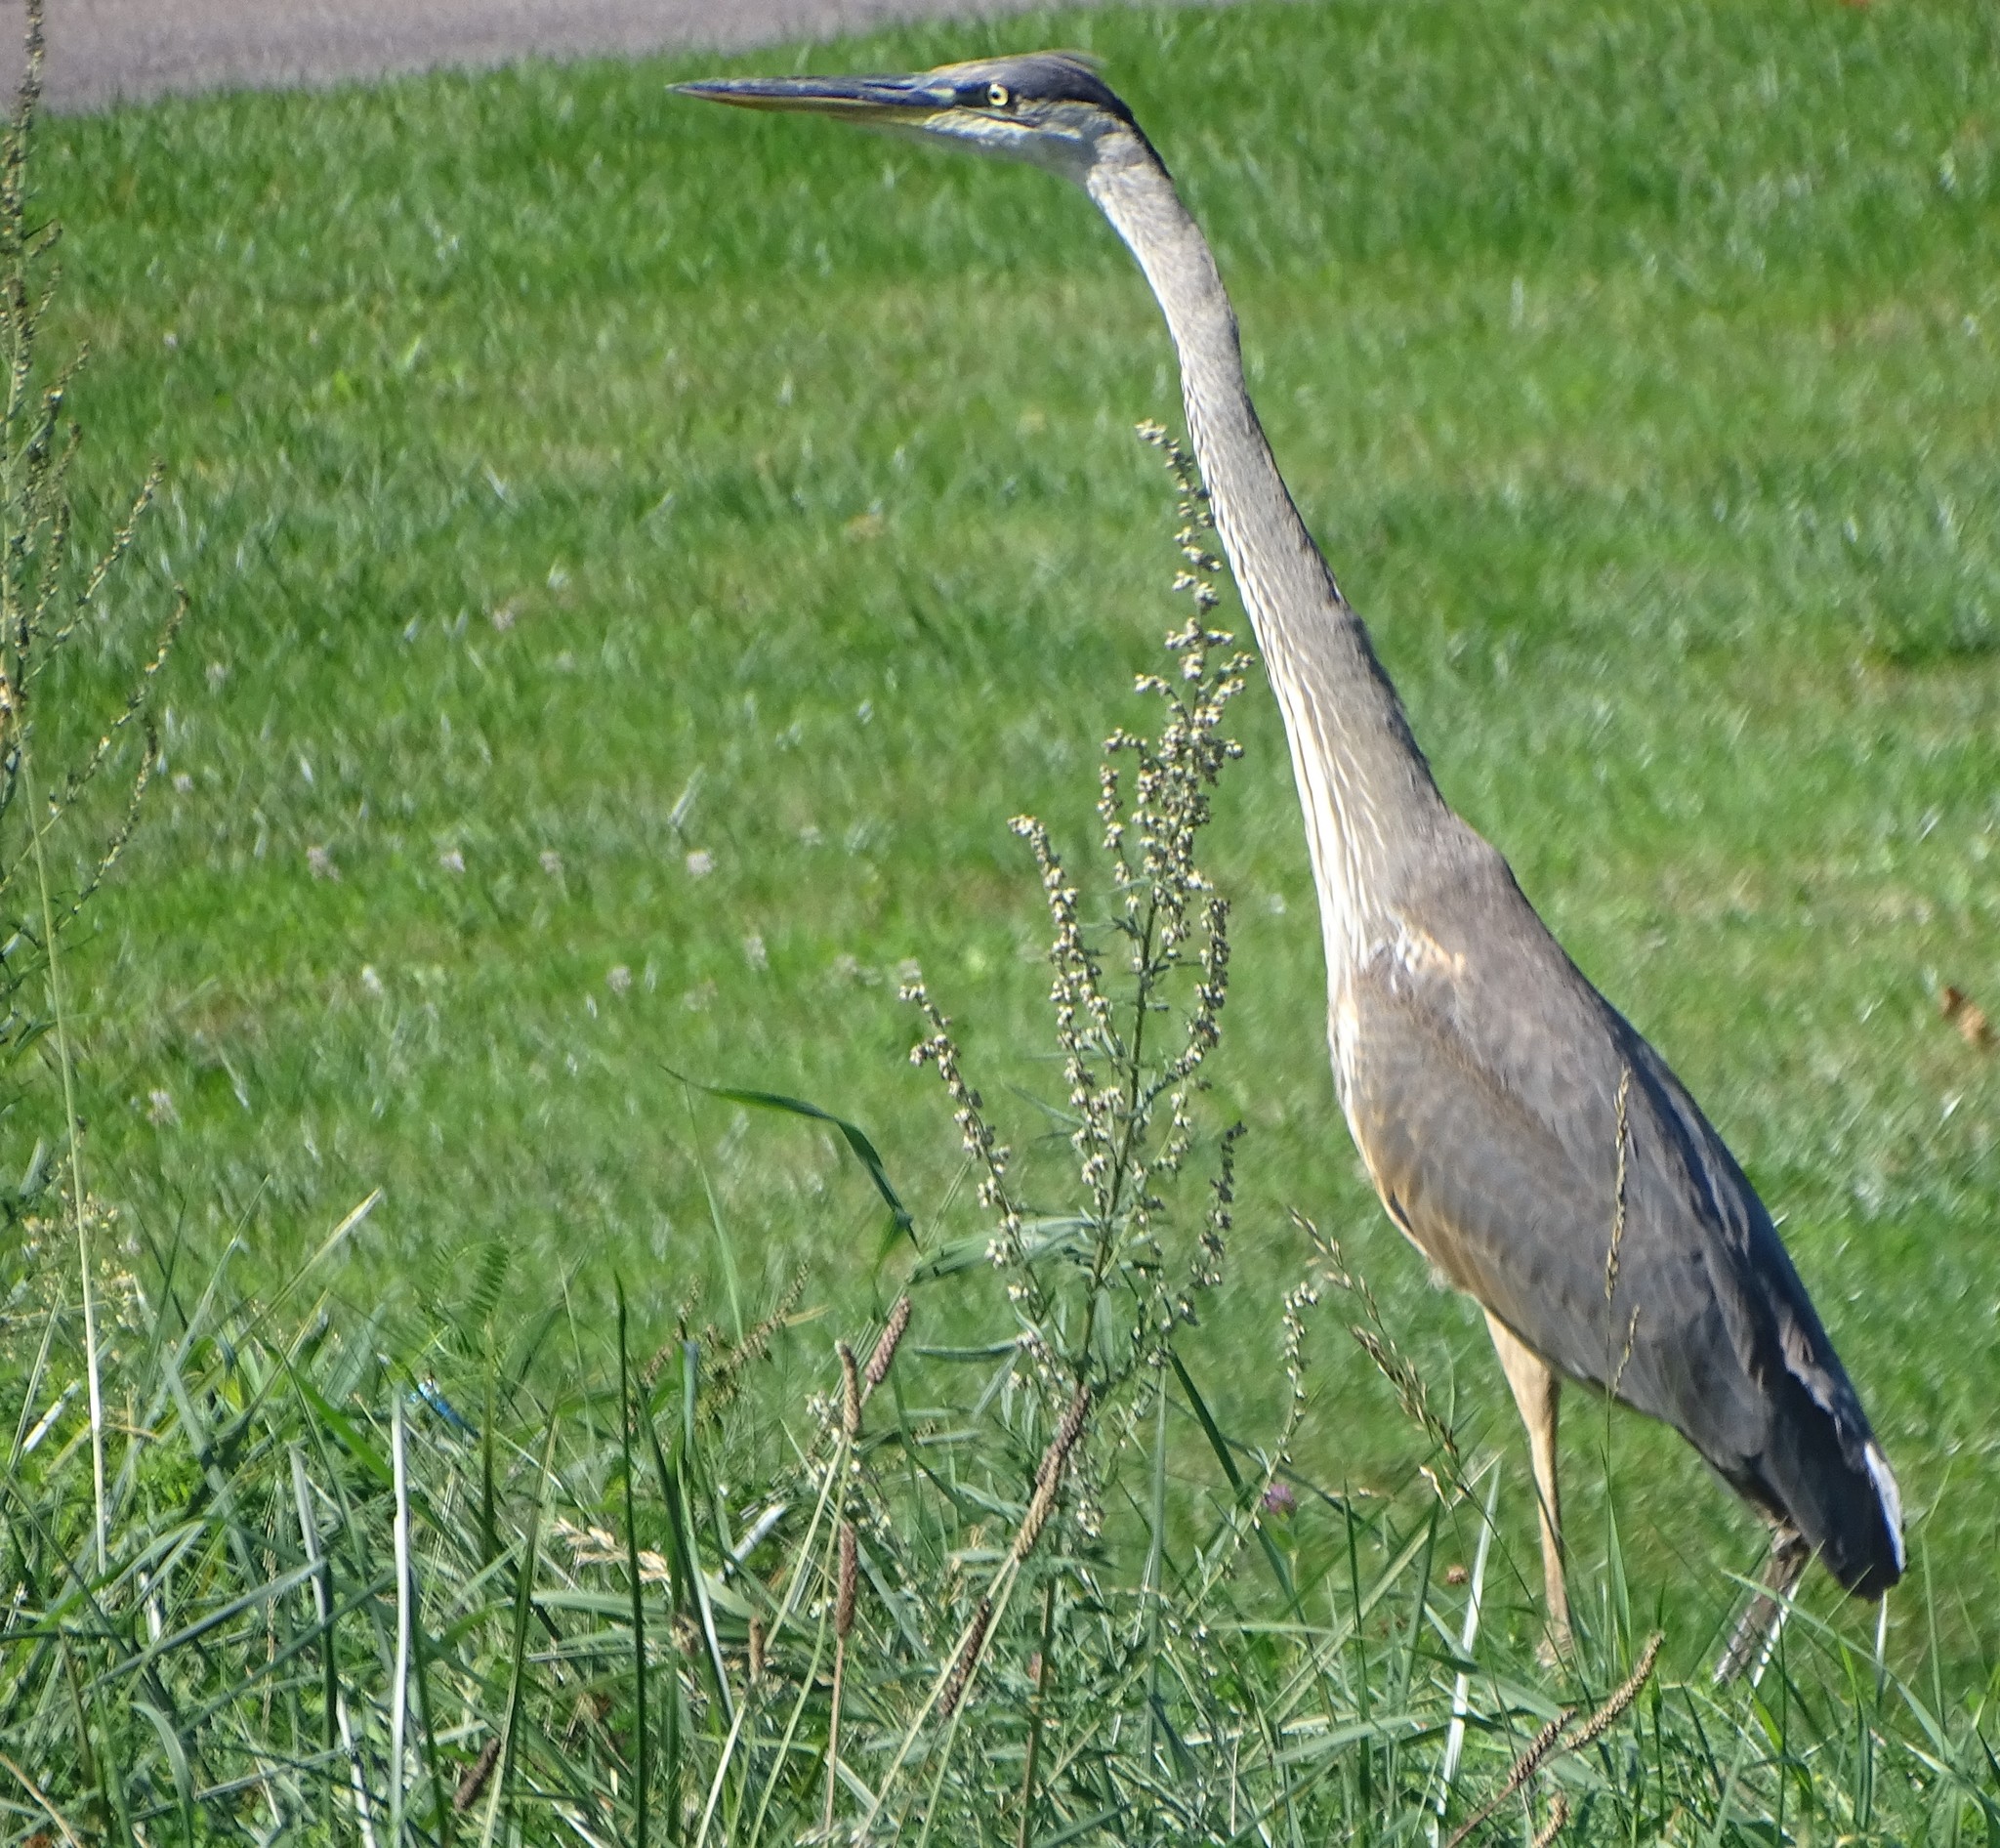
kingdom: Animalia
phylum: Chordata
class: Aves
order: Pelecaniformes
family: Ardeidae
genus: Ardea
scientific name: Ardea herodias
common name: Great blue heron
